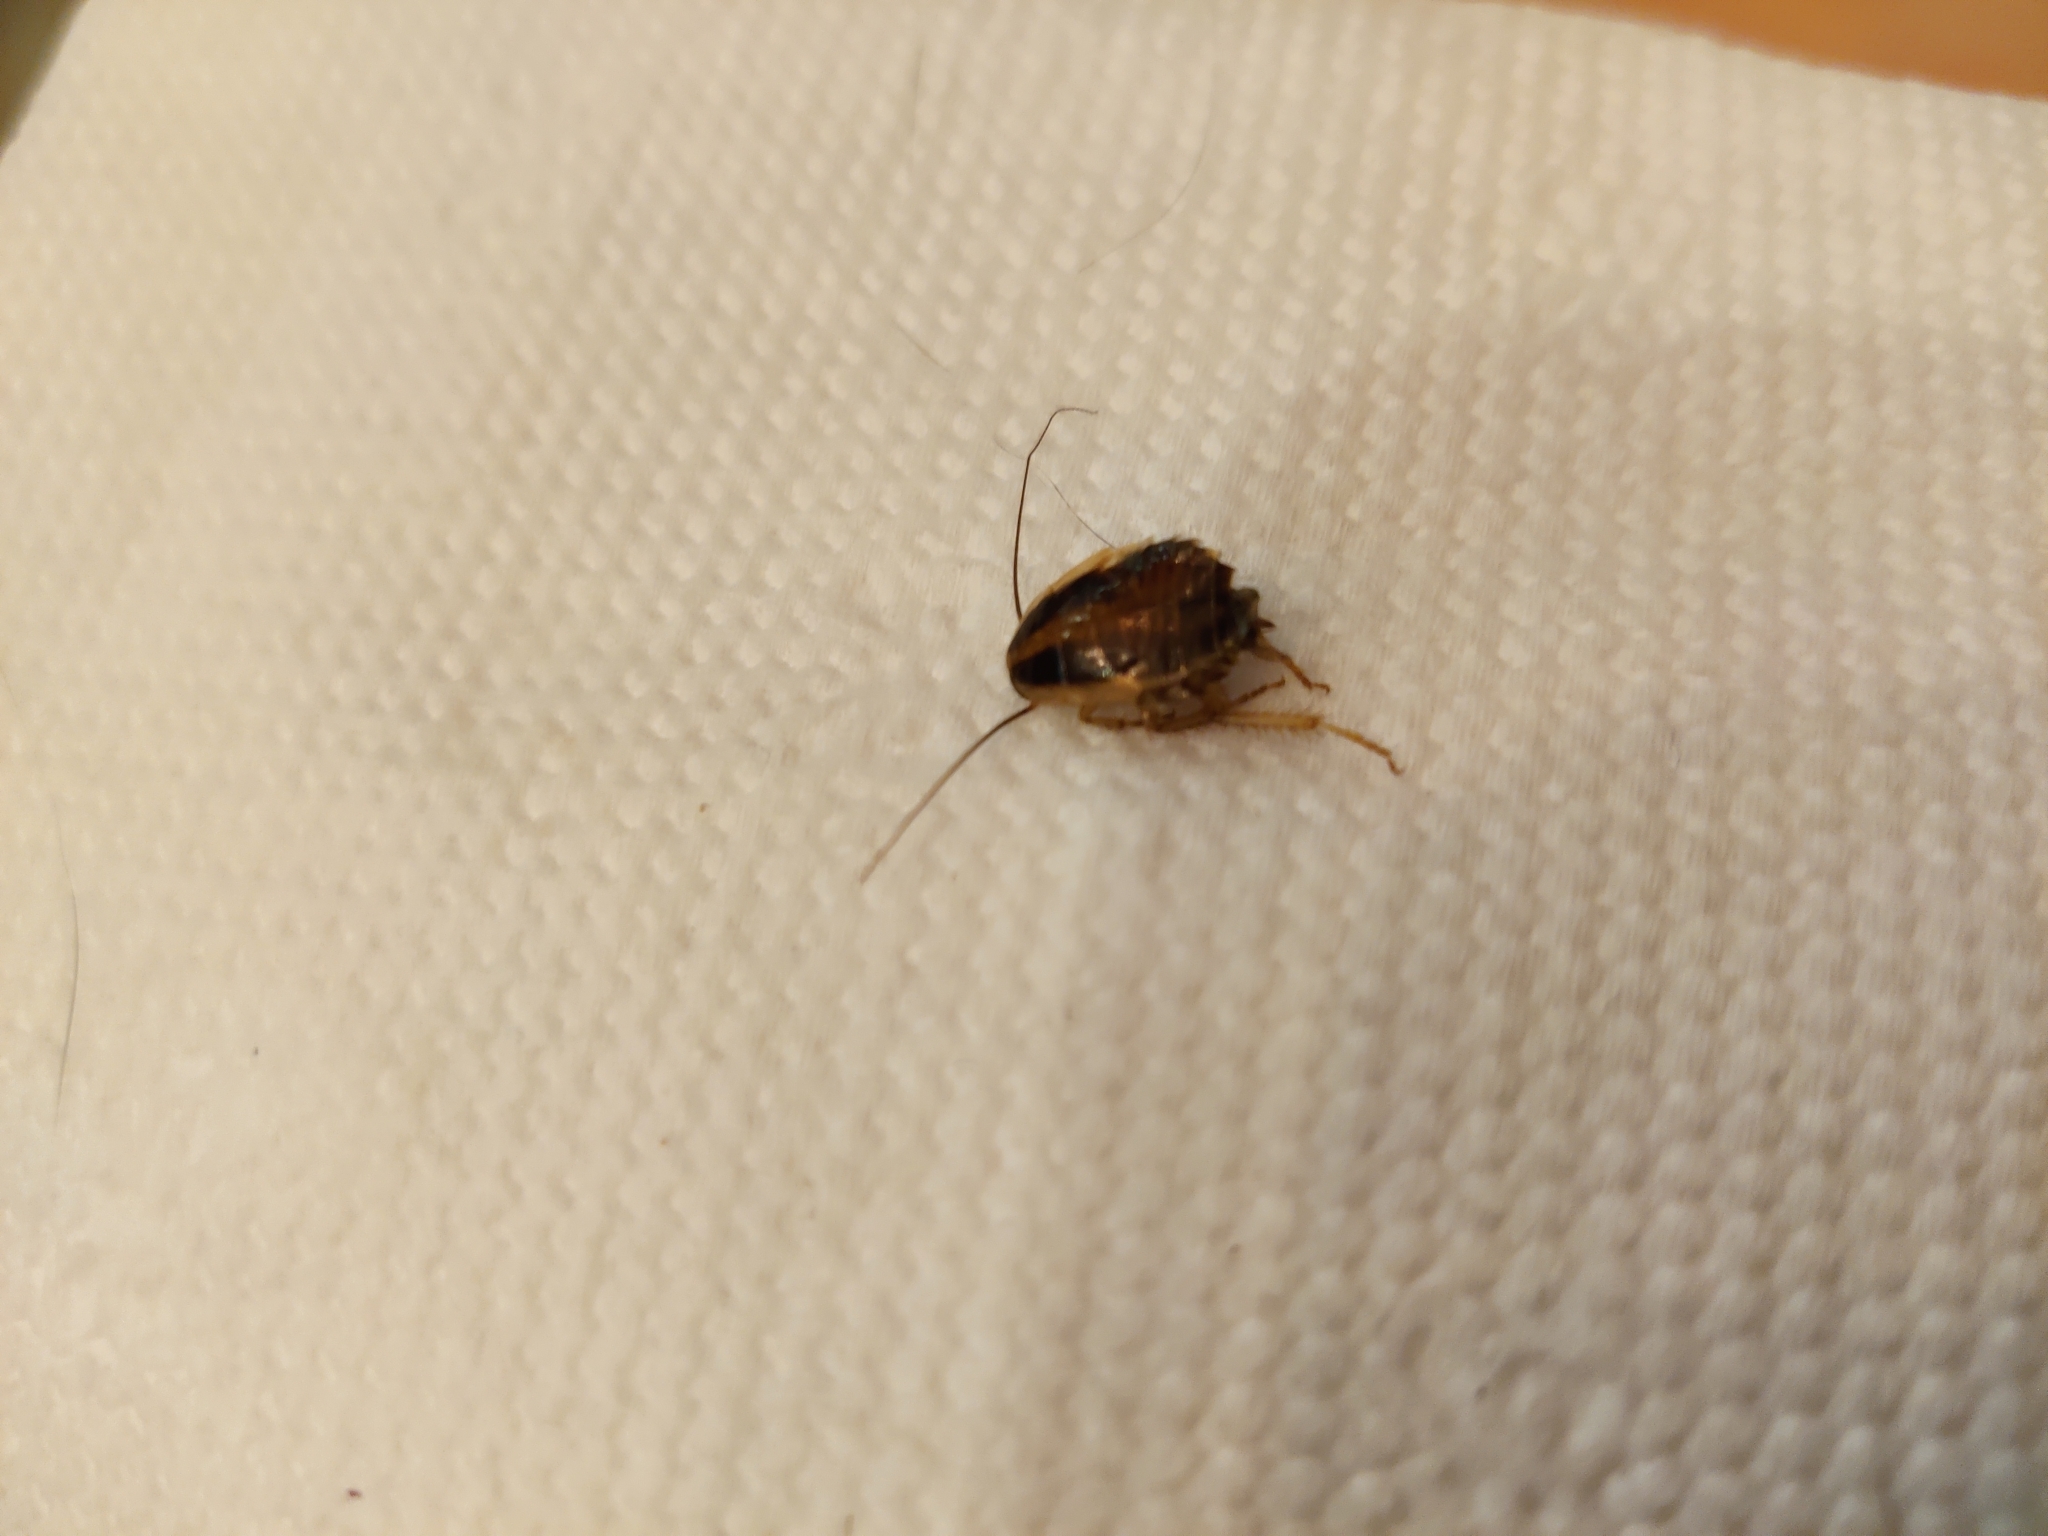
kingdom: Animalia
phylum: Arthropoda
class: Insecta
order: Blattodea
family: Ectobiidae
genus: Blattella
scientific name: Blattella germanica
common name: German cockroach
